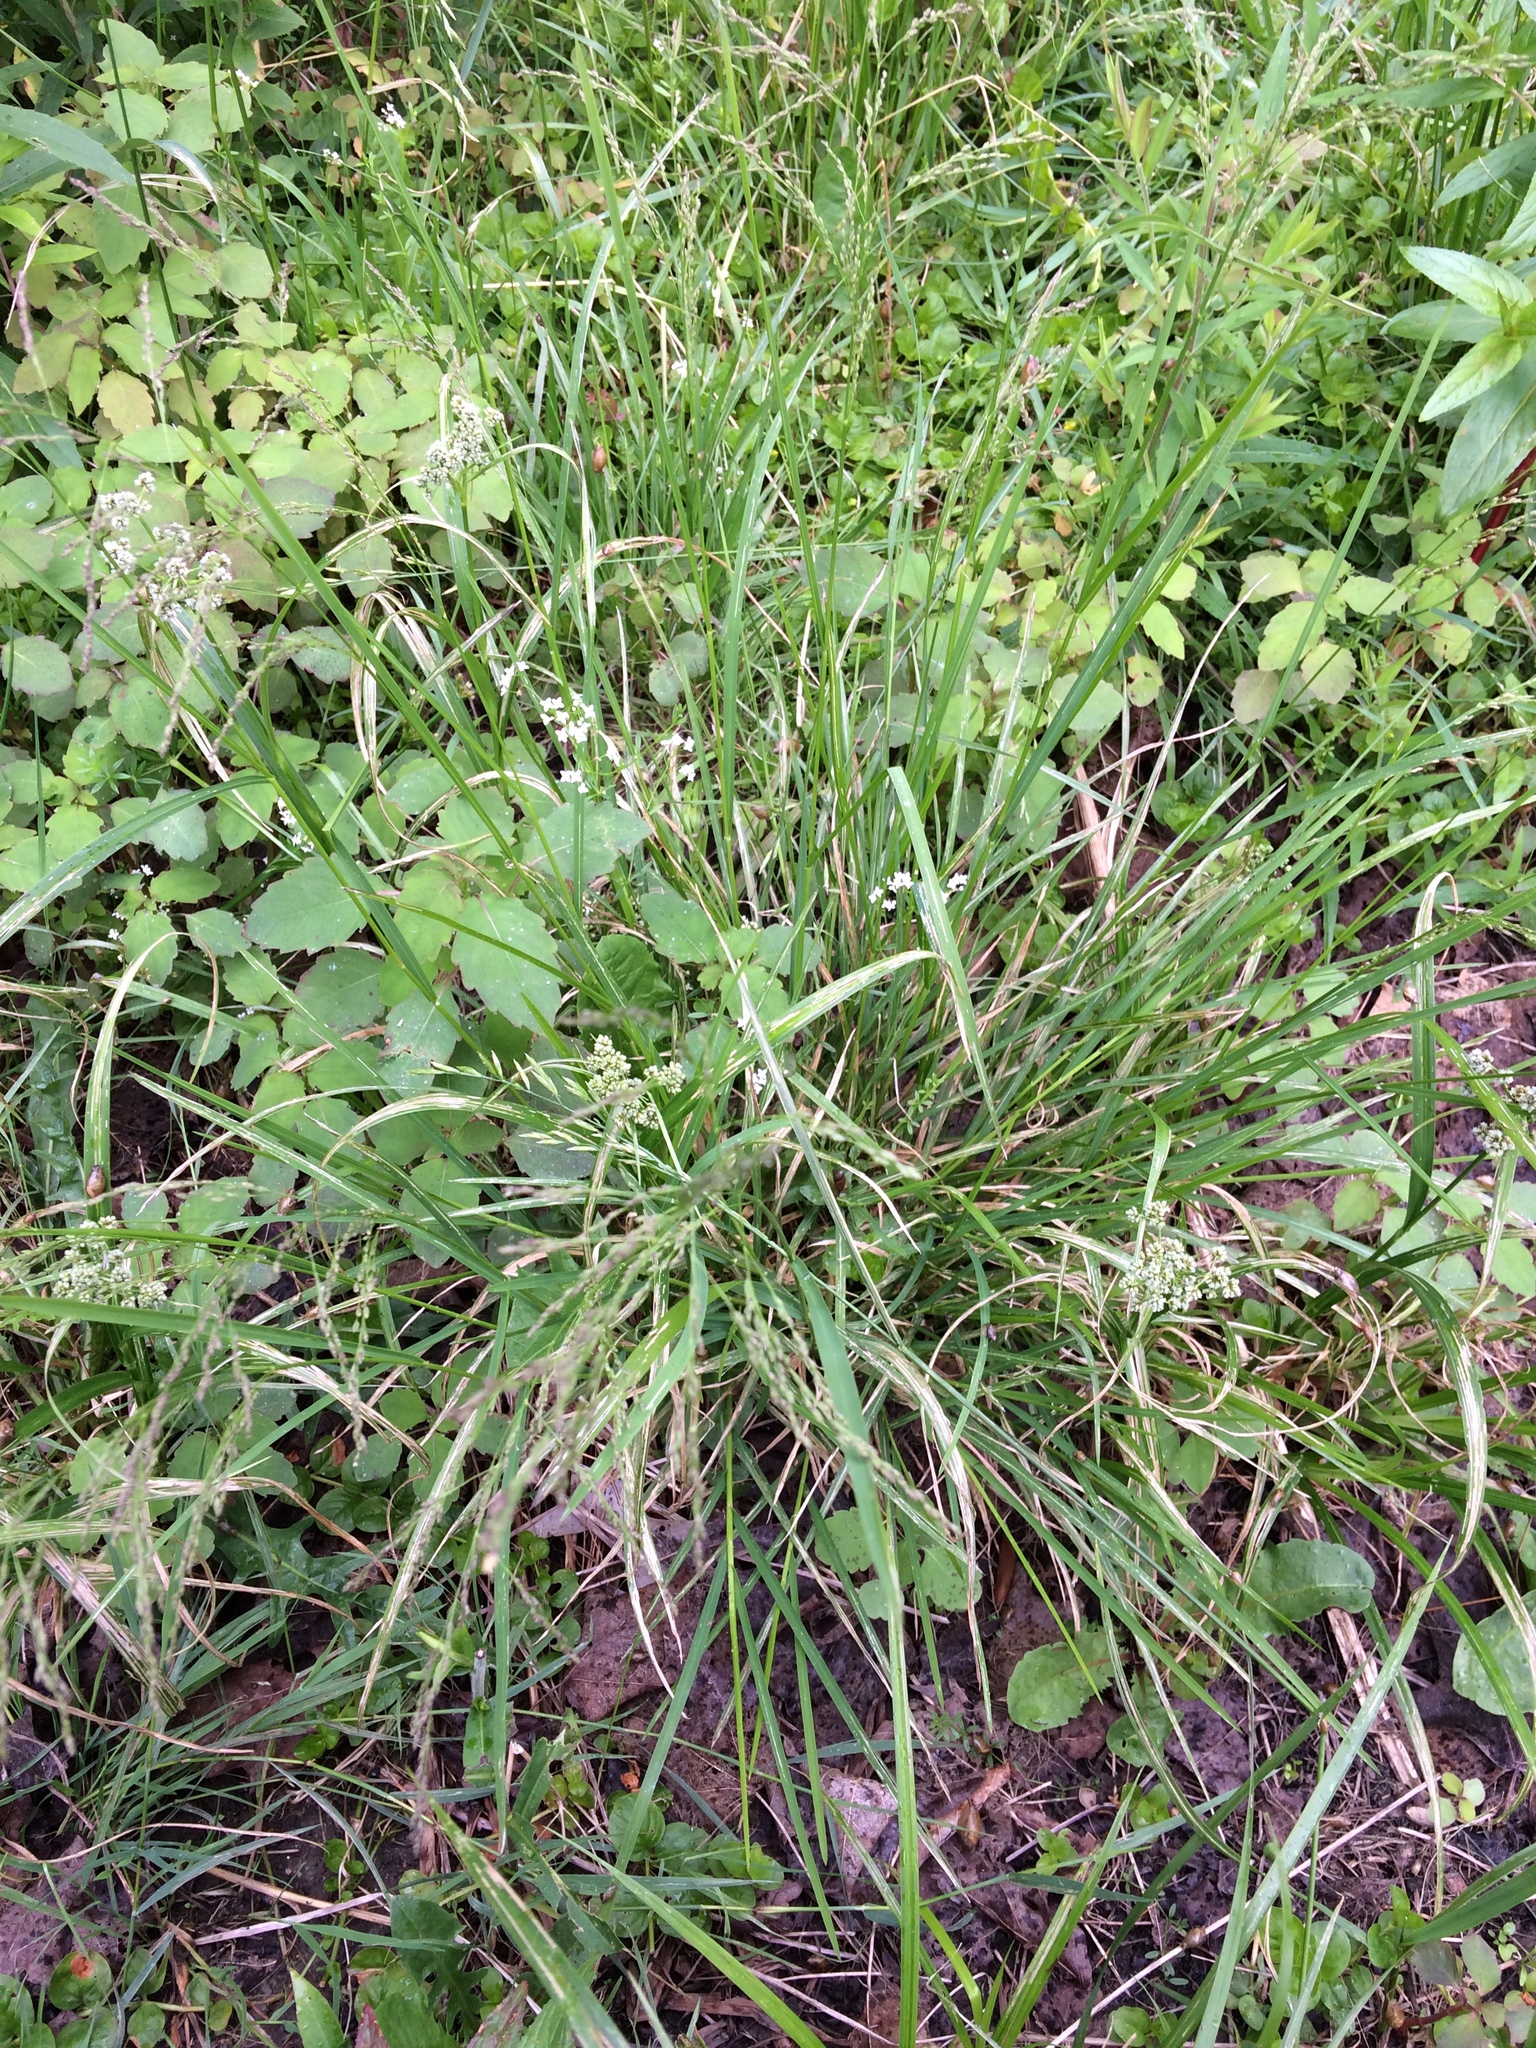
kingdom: Plantae
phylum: Tracheophyta
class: Liliopsida
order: Poales
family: Poaceae
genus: Glyceria
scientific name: Glyceria striata
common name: Fowl manna grass
